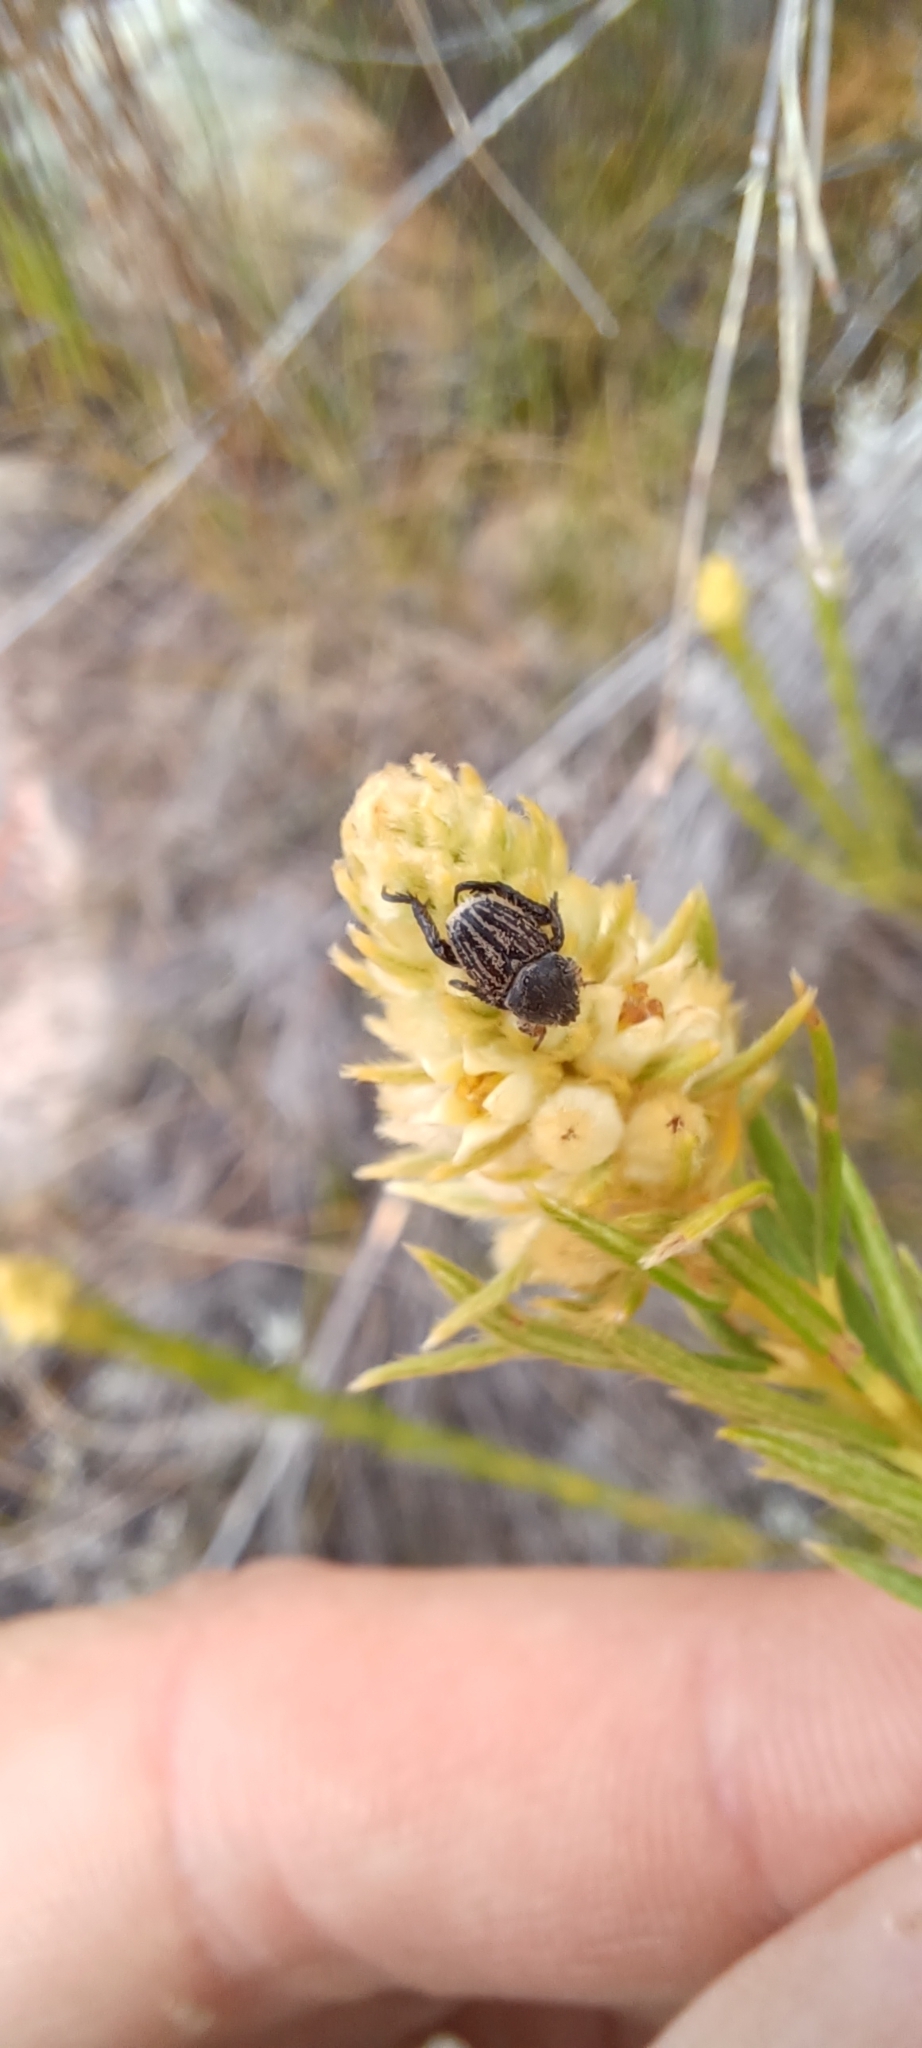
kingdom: Plantae
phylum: Tracheophyta
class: Magnoliopsida
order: Rosales
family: Rhamnaceae
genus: Phylica
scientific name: Phylica excelsa
